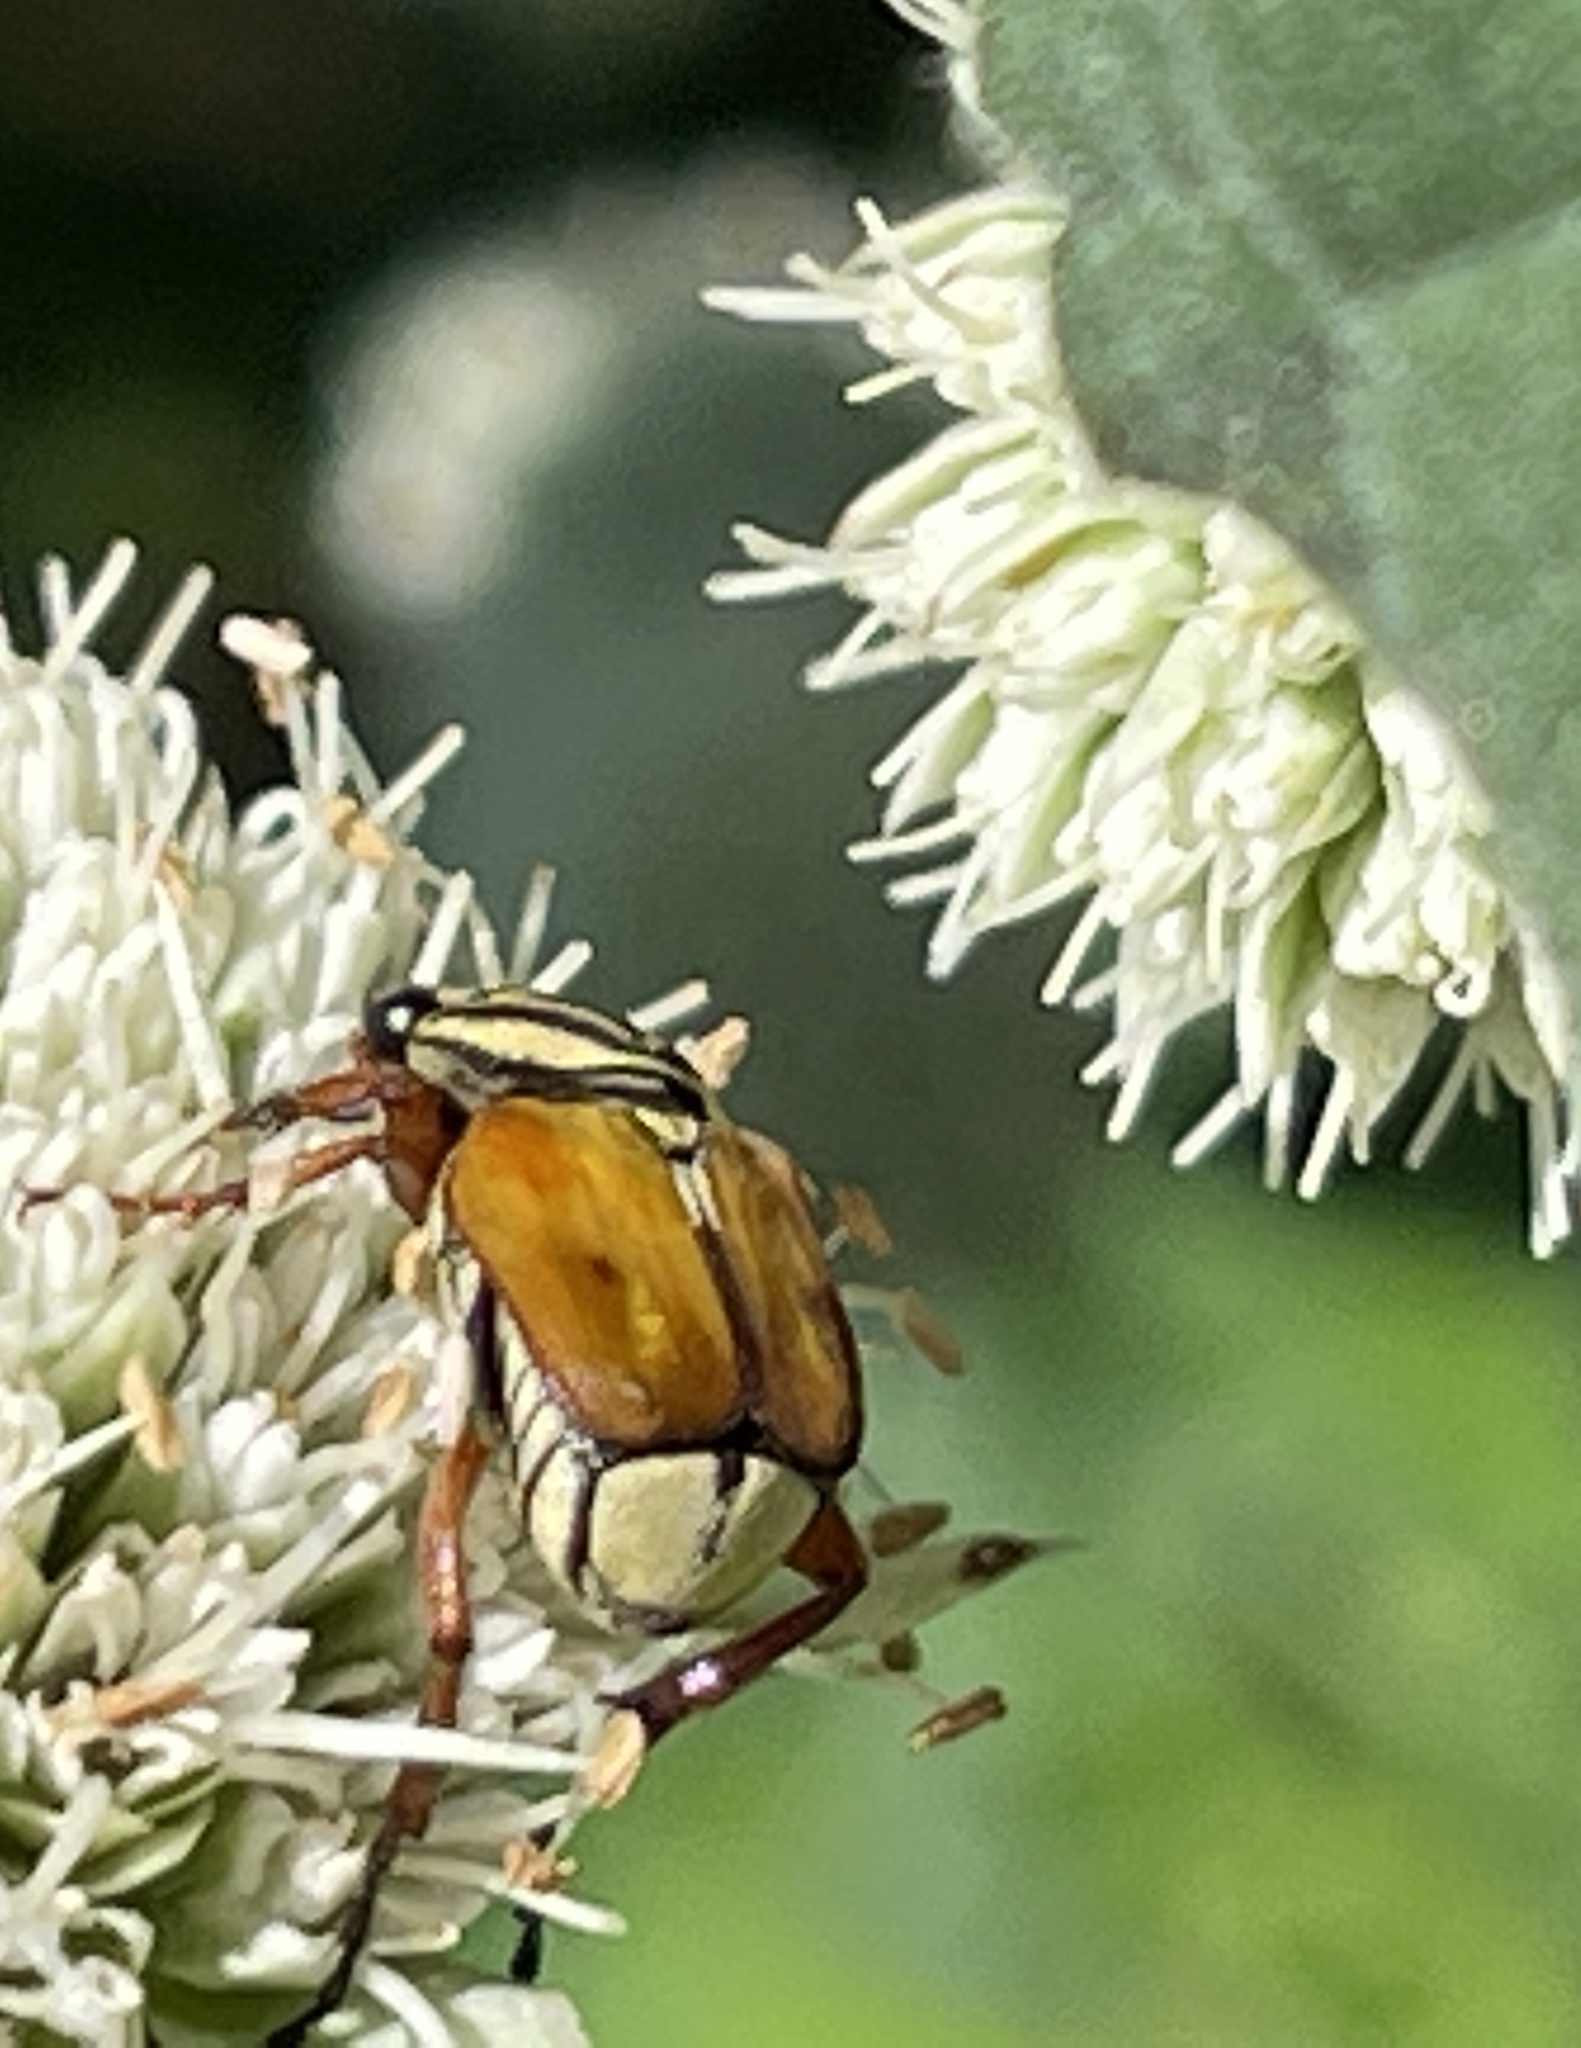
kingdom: Animalia
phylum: Arthropoda
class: Insecta
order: Coleoptera
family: Scarabaeidae
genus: Trigonopeltastes
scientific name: Trigonopeltastes delta
